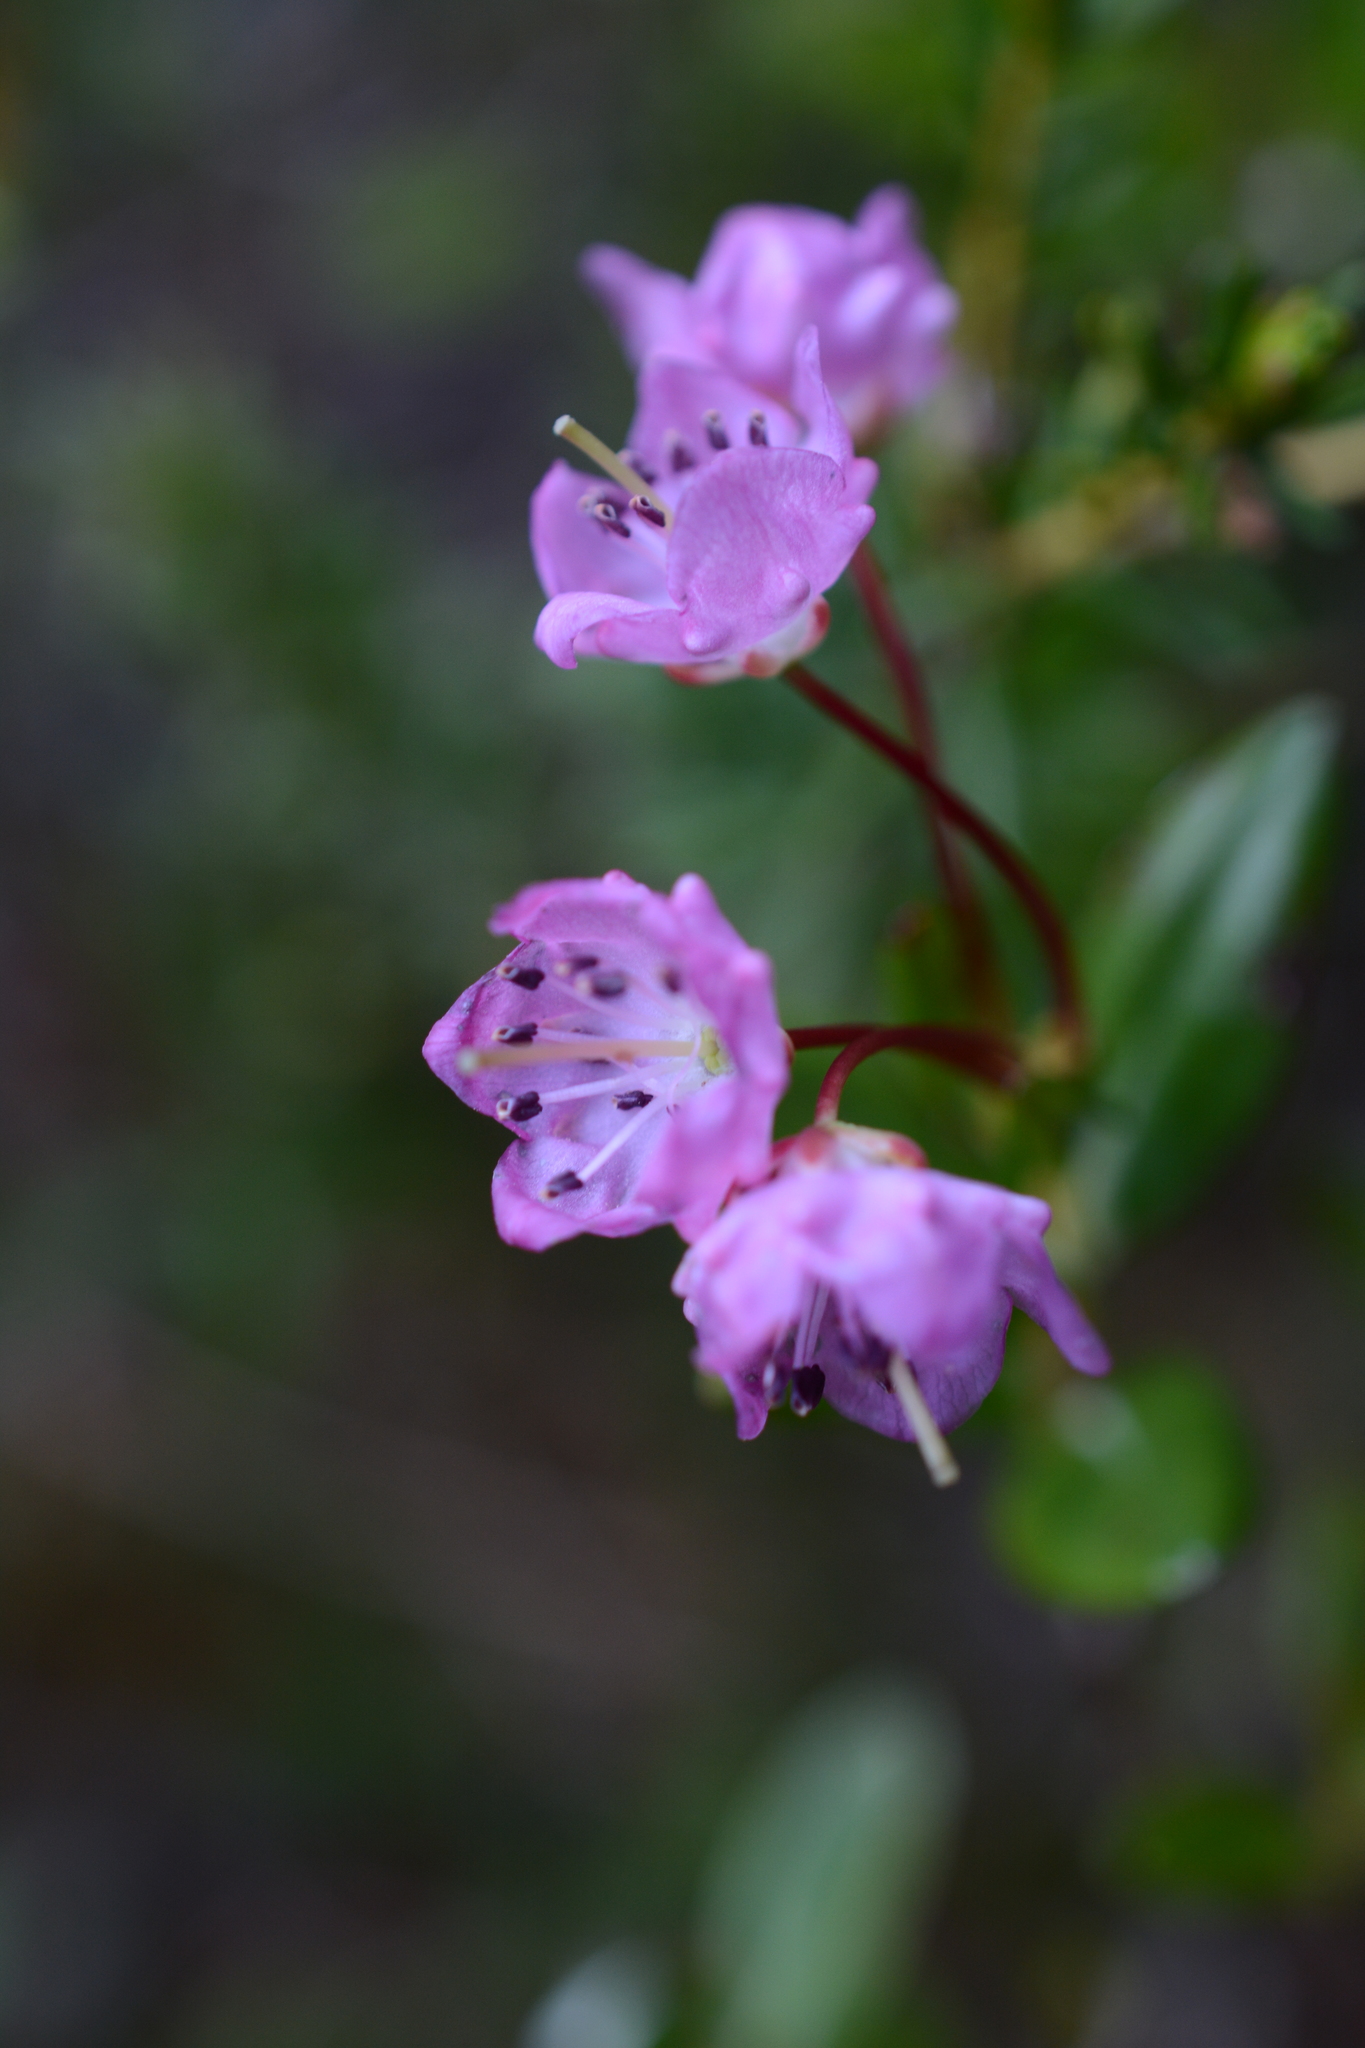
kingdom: Plantae
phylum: Tracheophyta
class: Magnoliopsida
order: Ericales
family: Ericaceae
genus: Kalmia
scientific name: Kalmia microphylla
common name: Alpine bog laurel
